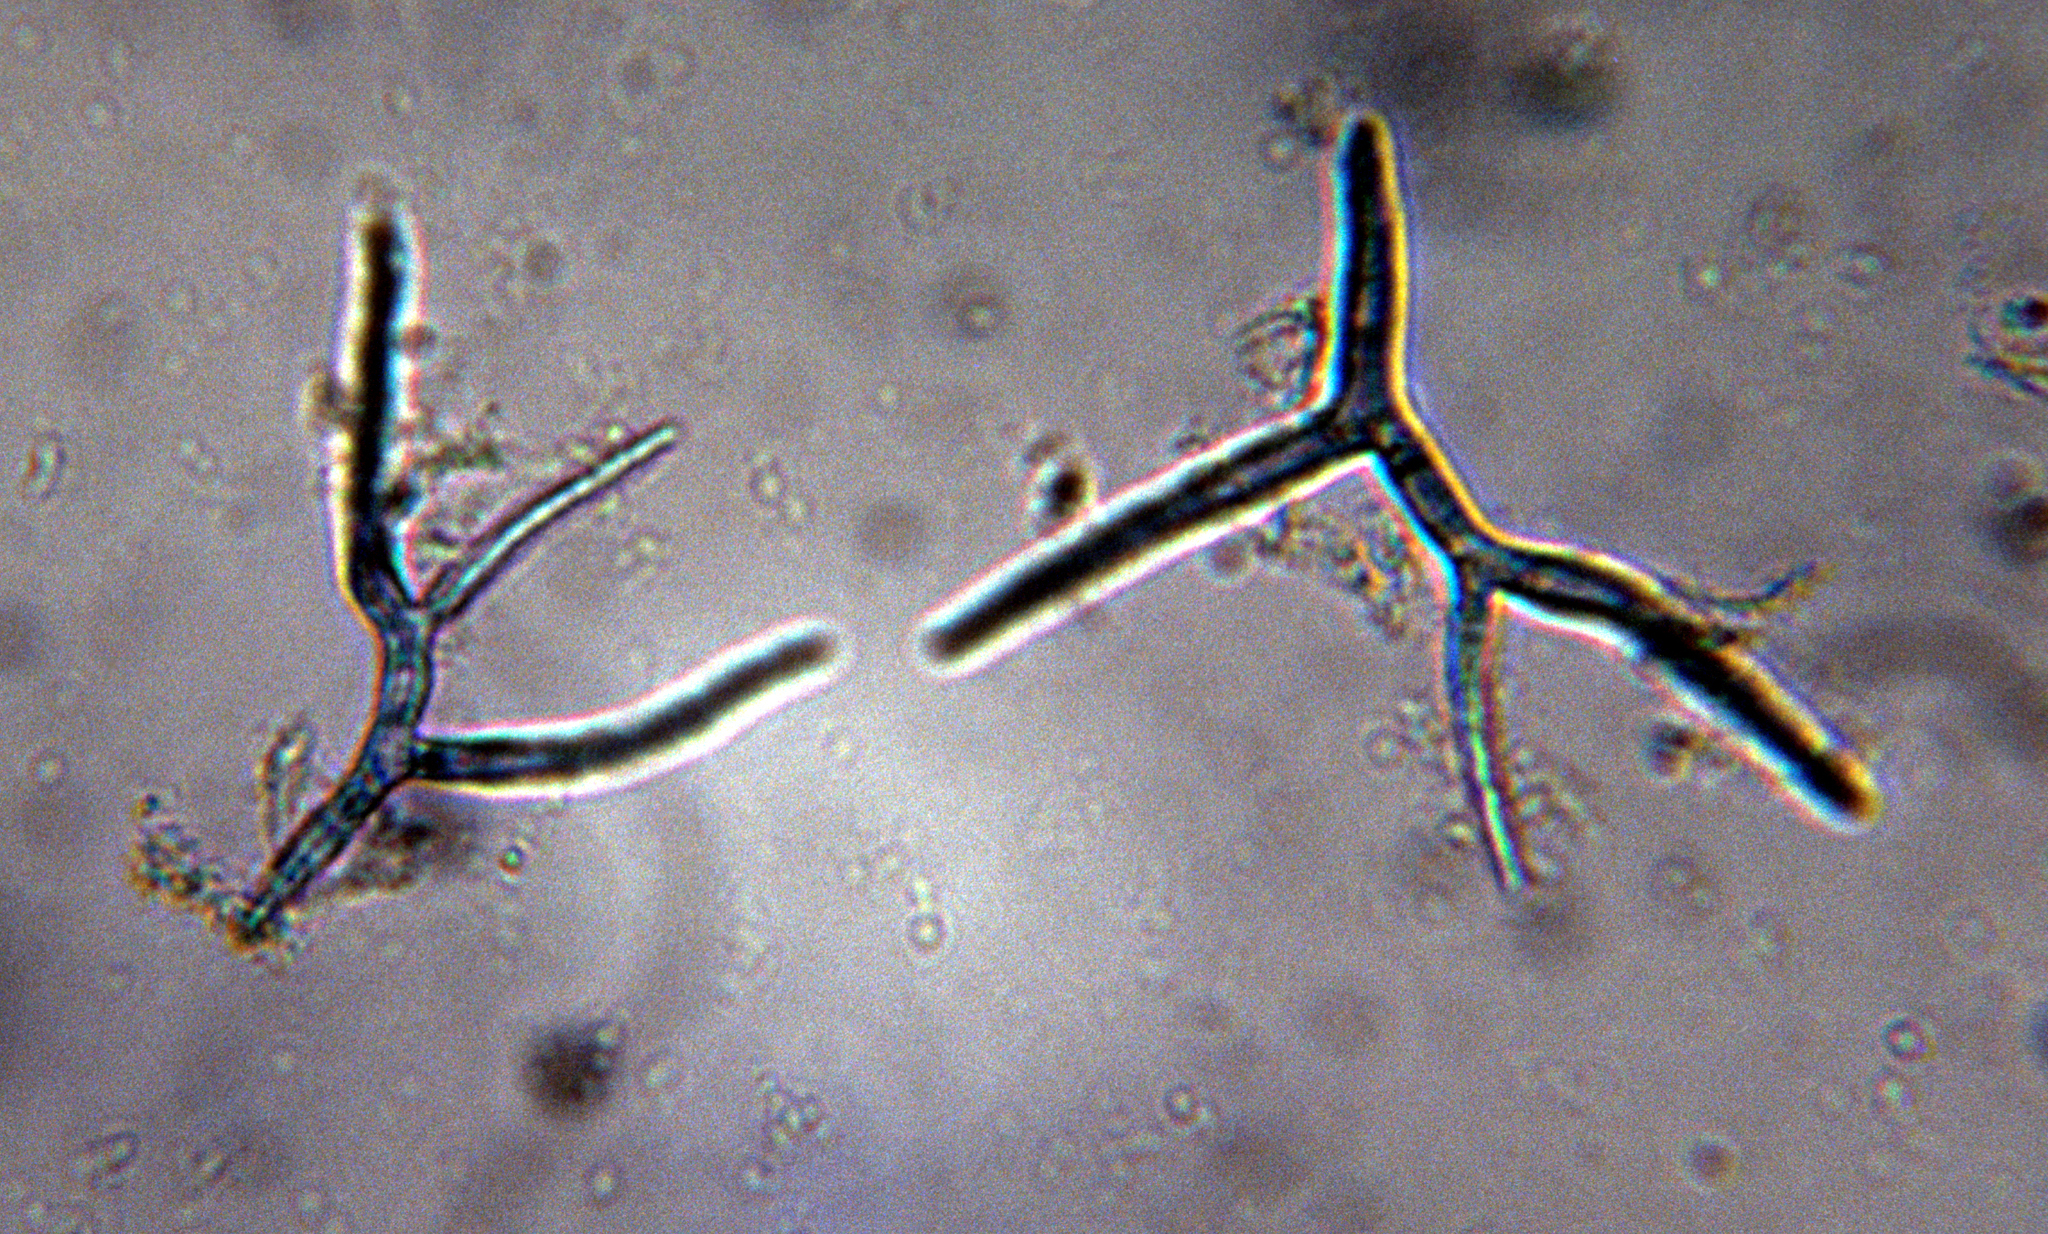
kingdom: Fungi
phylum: Ascomycota
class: Leotiomycetes
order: Helotiales
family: Tricladiaceae
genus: Tricladium
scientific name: Tricladium angulatum
